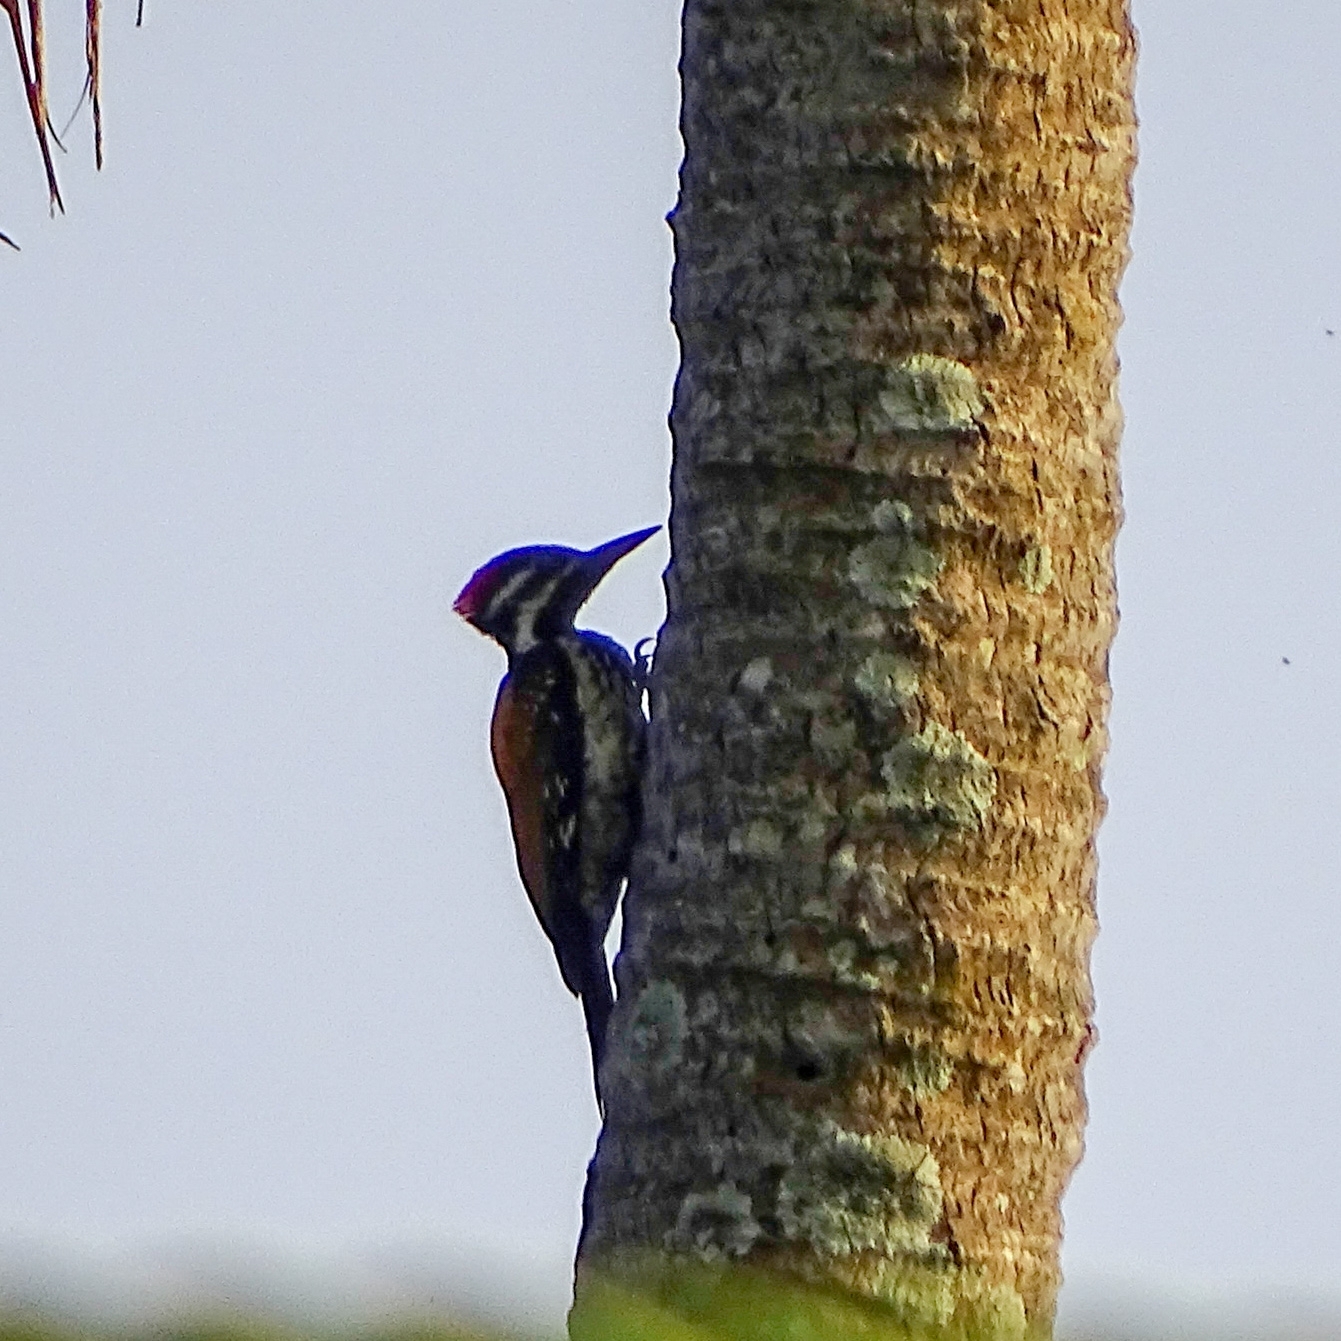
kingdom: Animalia
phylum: Chordata
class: Aves
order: Piciformes
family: Picidae
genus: Dinopium
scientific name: Dinopium benghalense
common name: Black-rumped flameback
